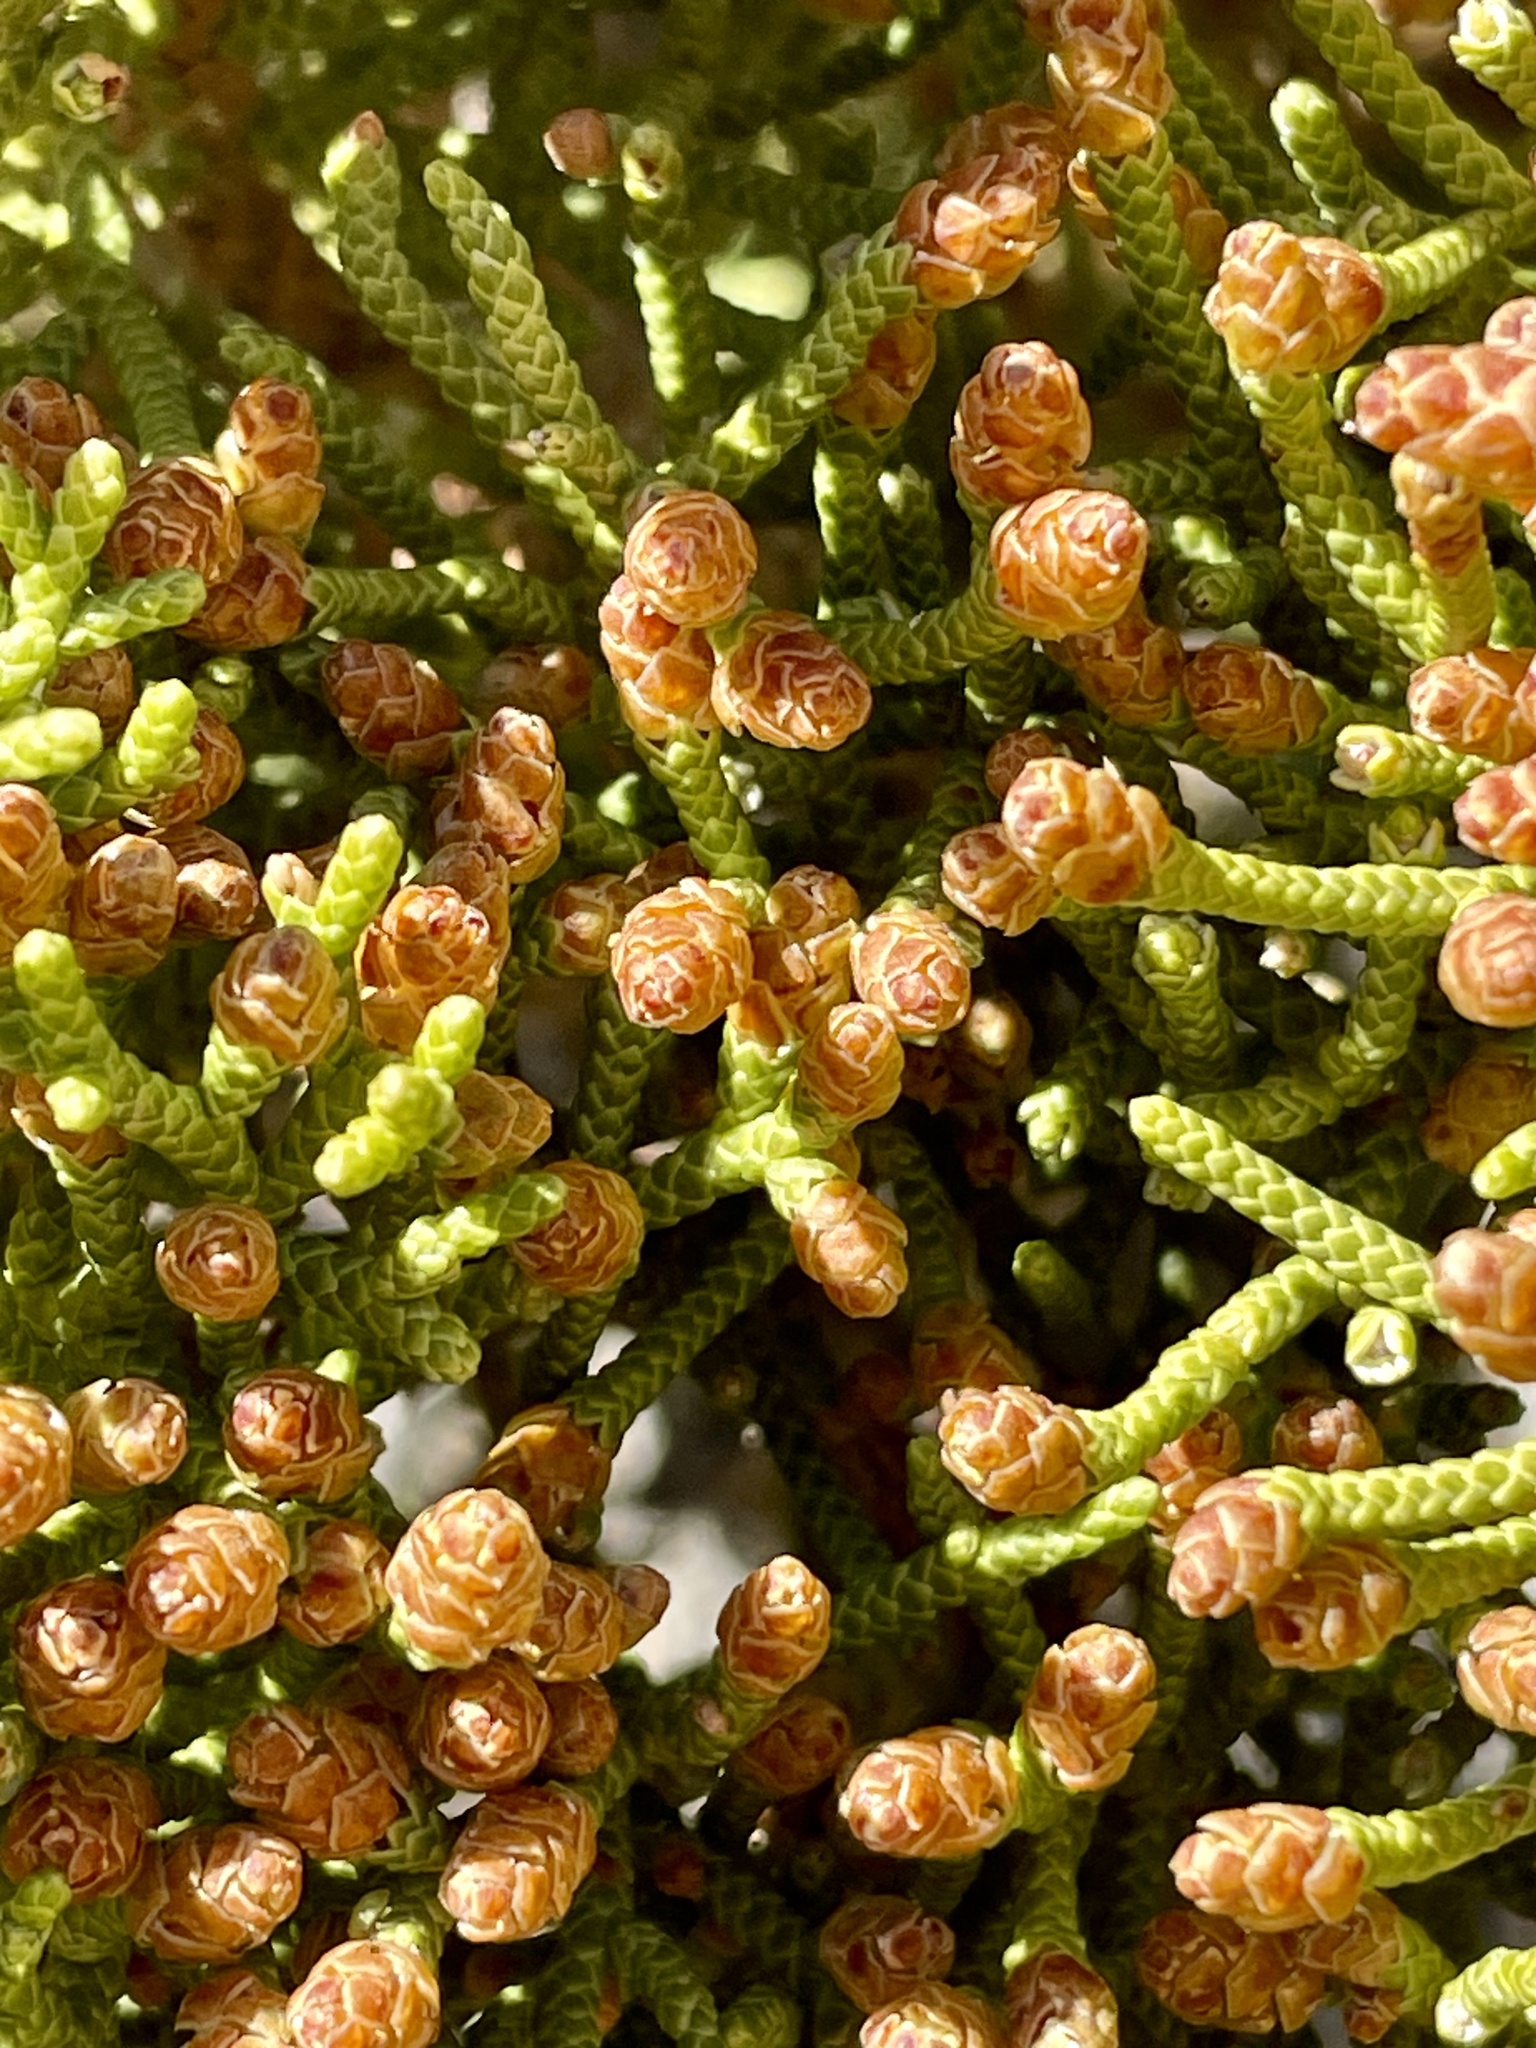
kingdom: Plantae
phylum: Tracheophyta
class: Pinopsida
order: Pinales
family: Cupressaceae
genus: Juniperus
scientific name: Juniperus californica
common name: California juniper
